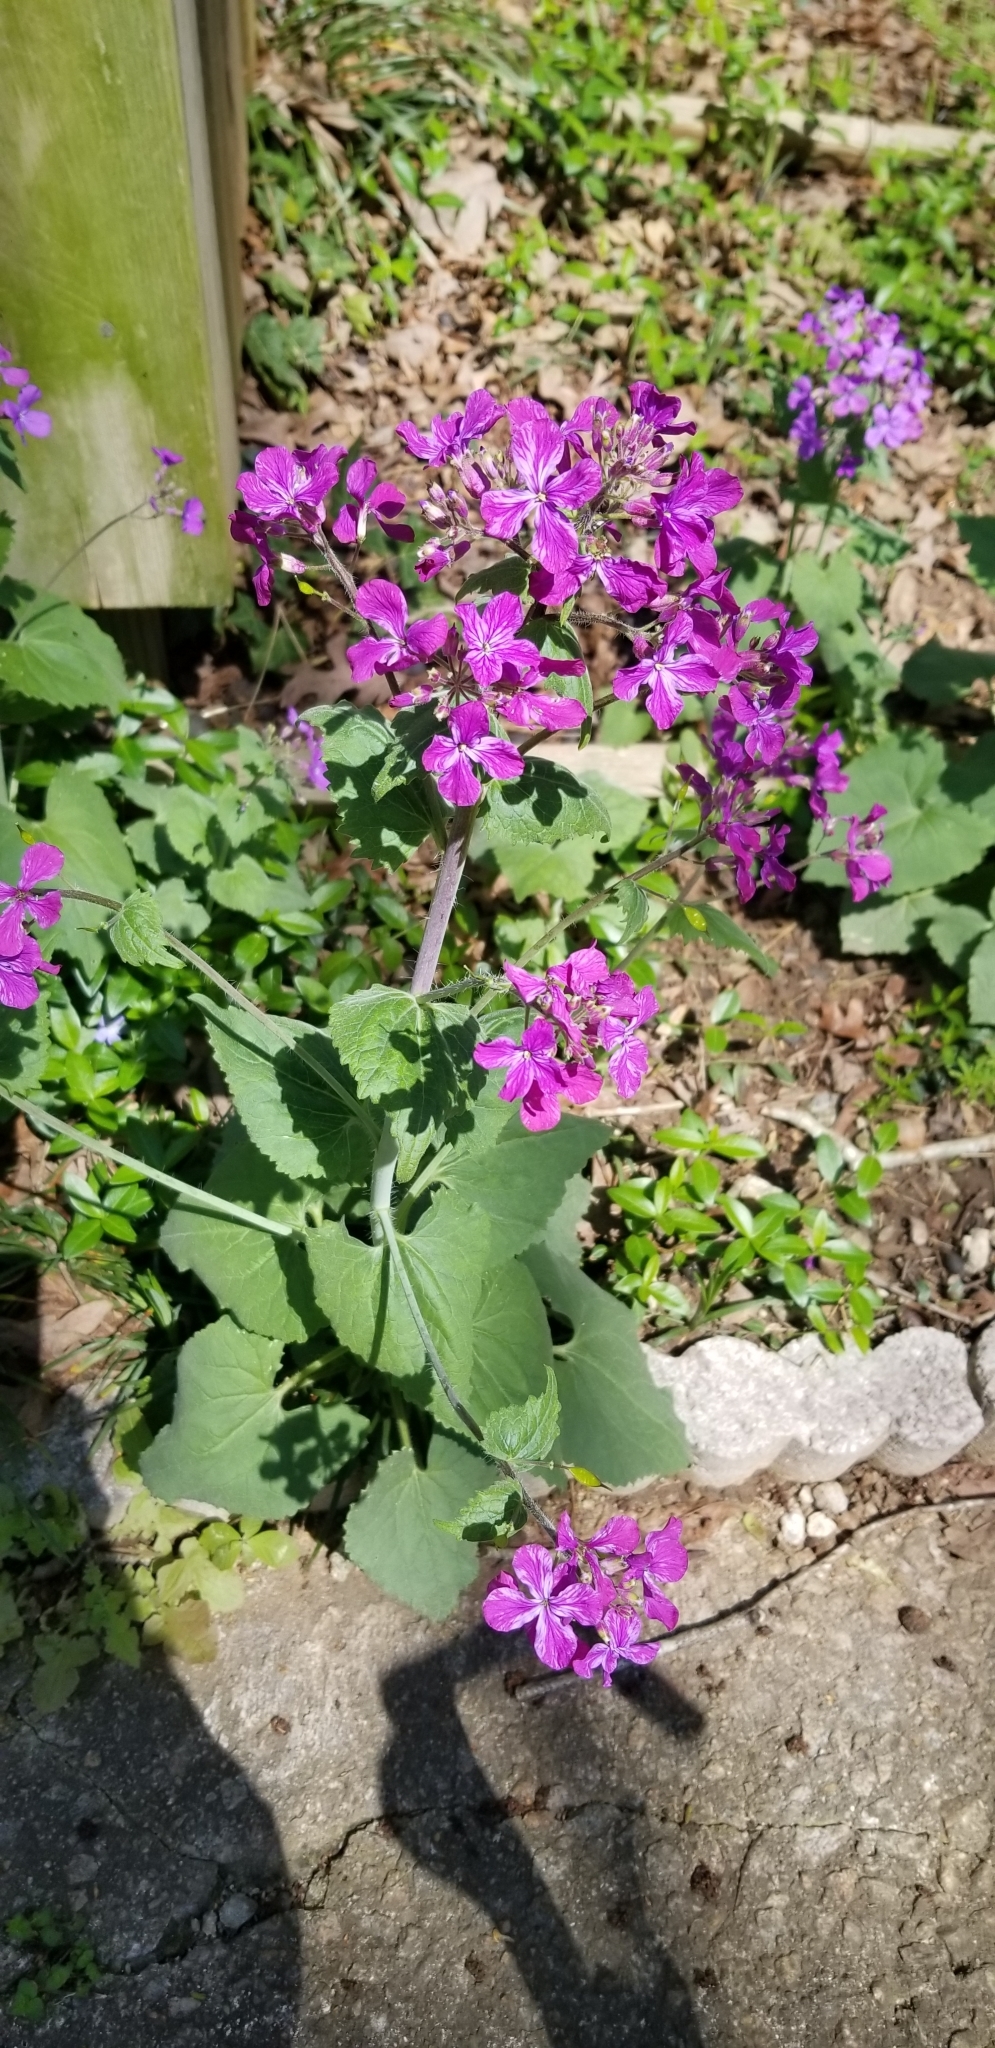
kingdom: Plantae
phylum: Tracheophyta
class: Magnoliopsida
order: Brassicales
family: Brassicaceae
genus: Lunaria
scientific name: Lunaria annua
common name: Honesty
